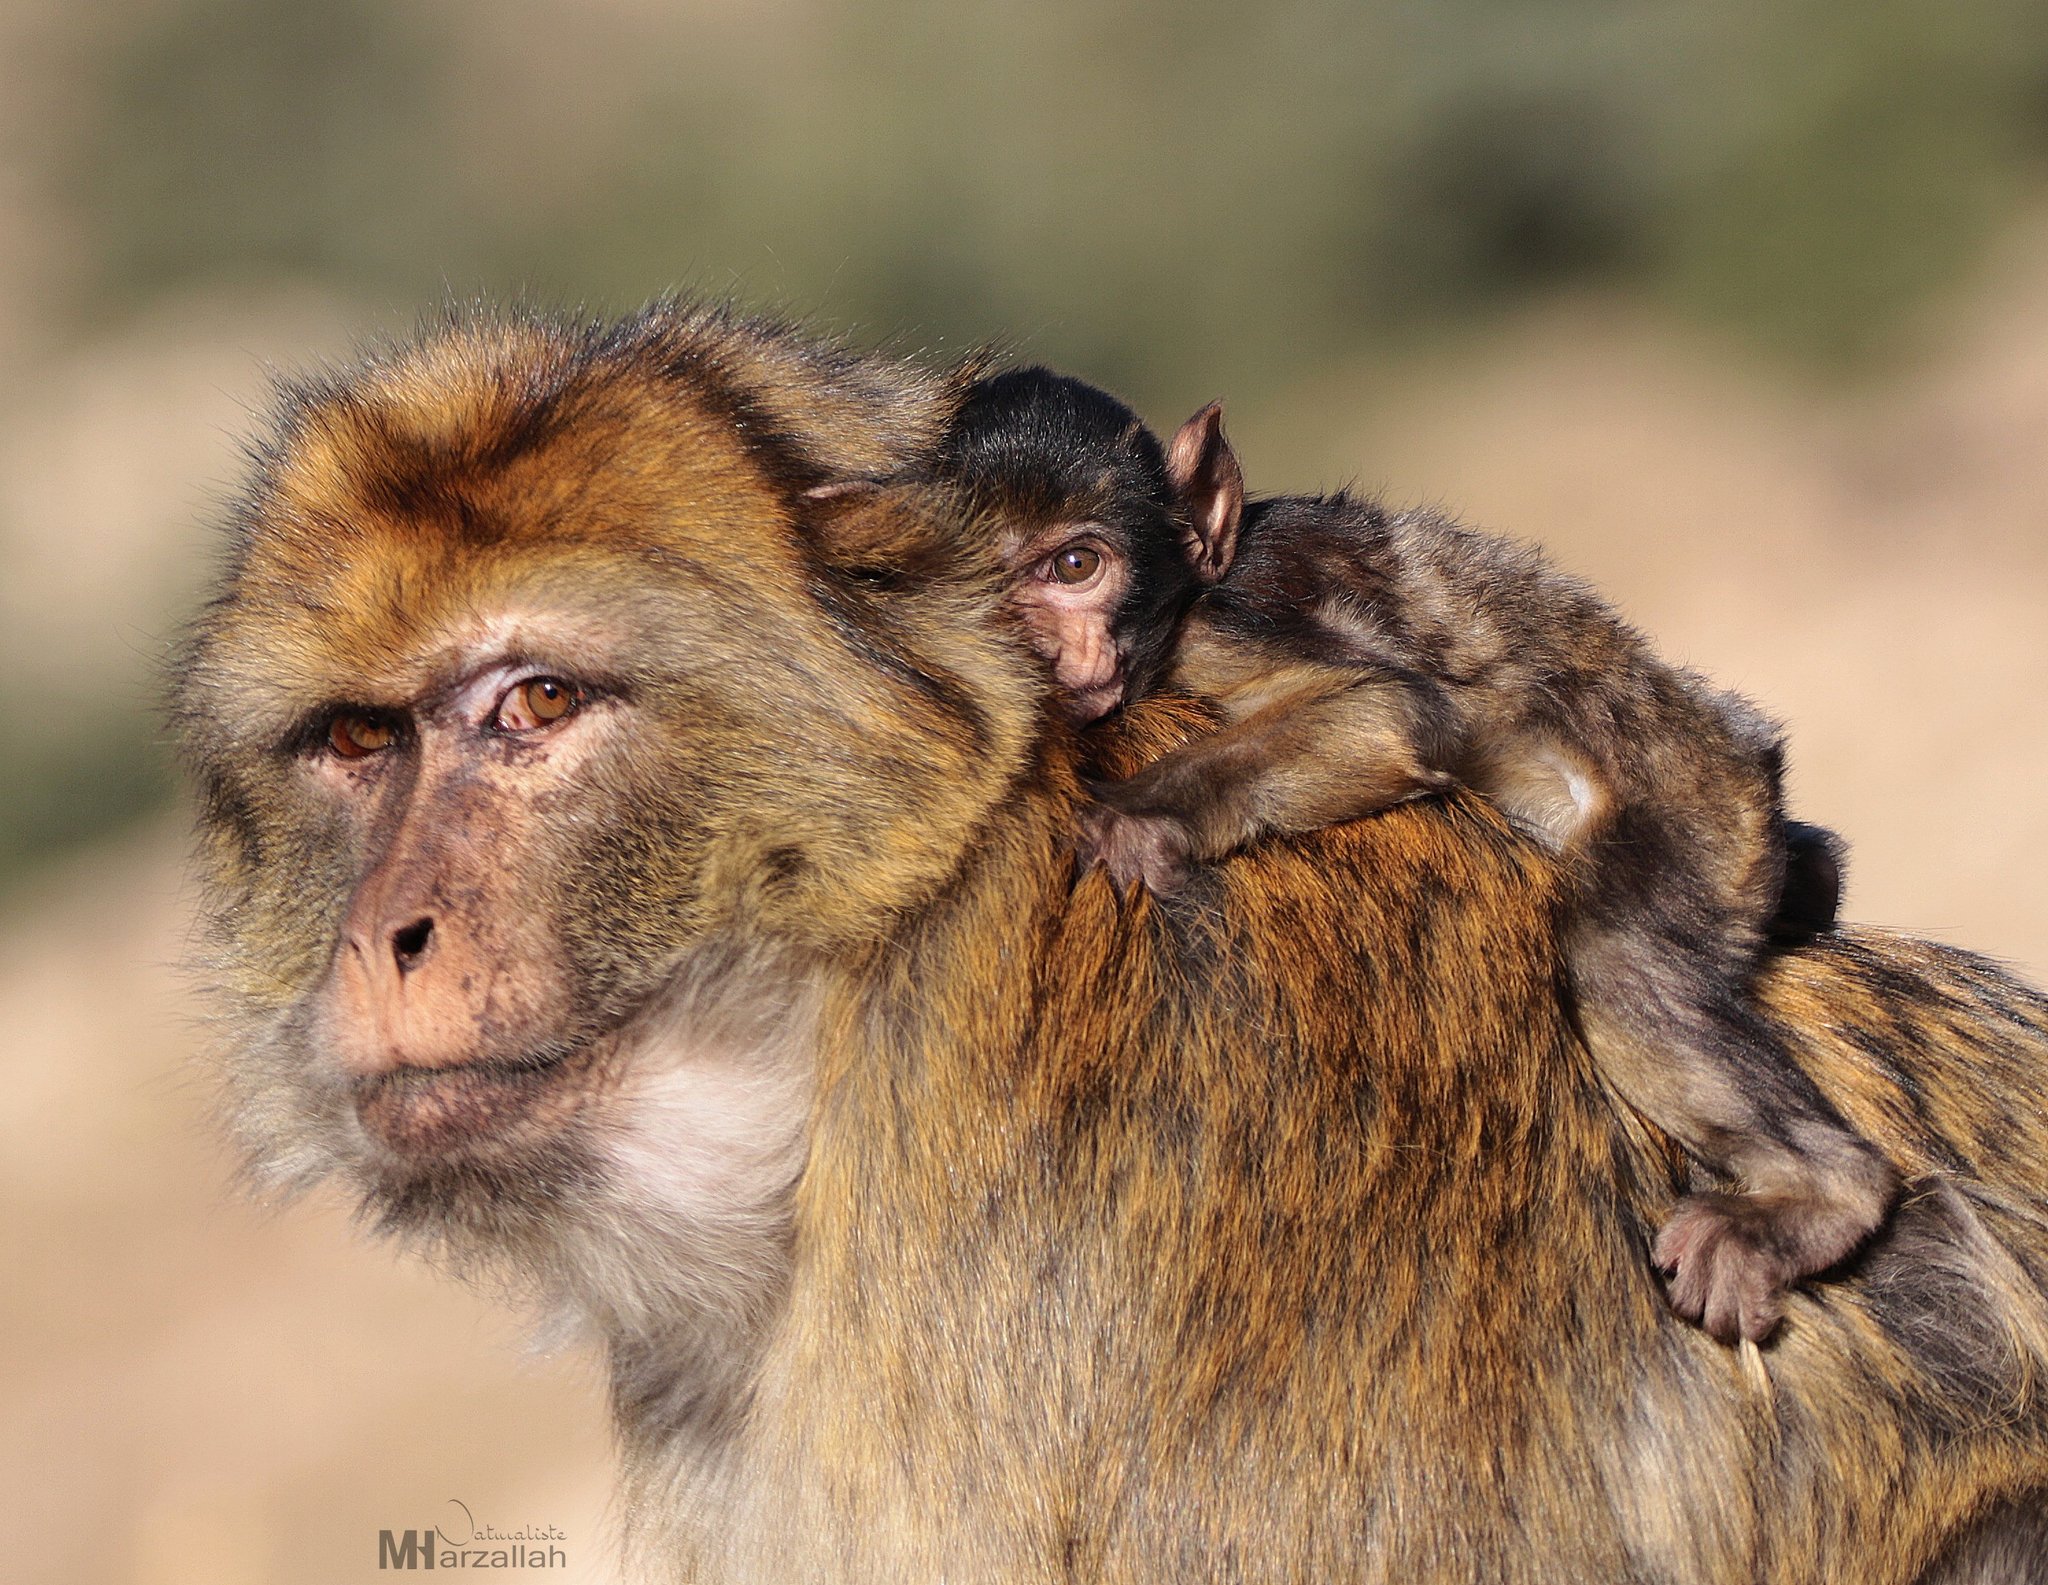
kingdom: Animalia
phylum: Chordata
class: Mammalia
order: Primates
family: Cercopithecidae
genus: Macaca
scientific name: Macaca sylvanus
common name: Barbary macaque
